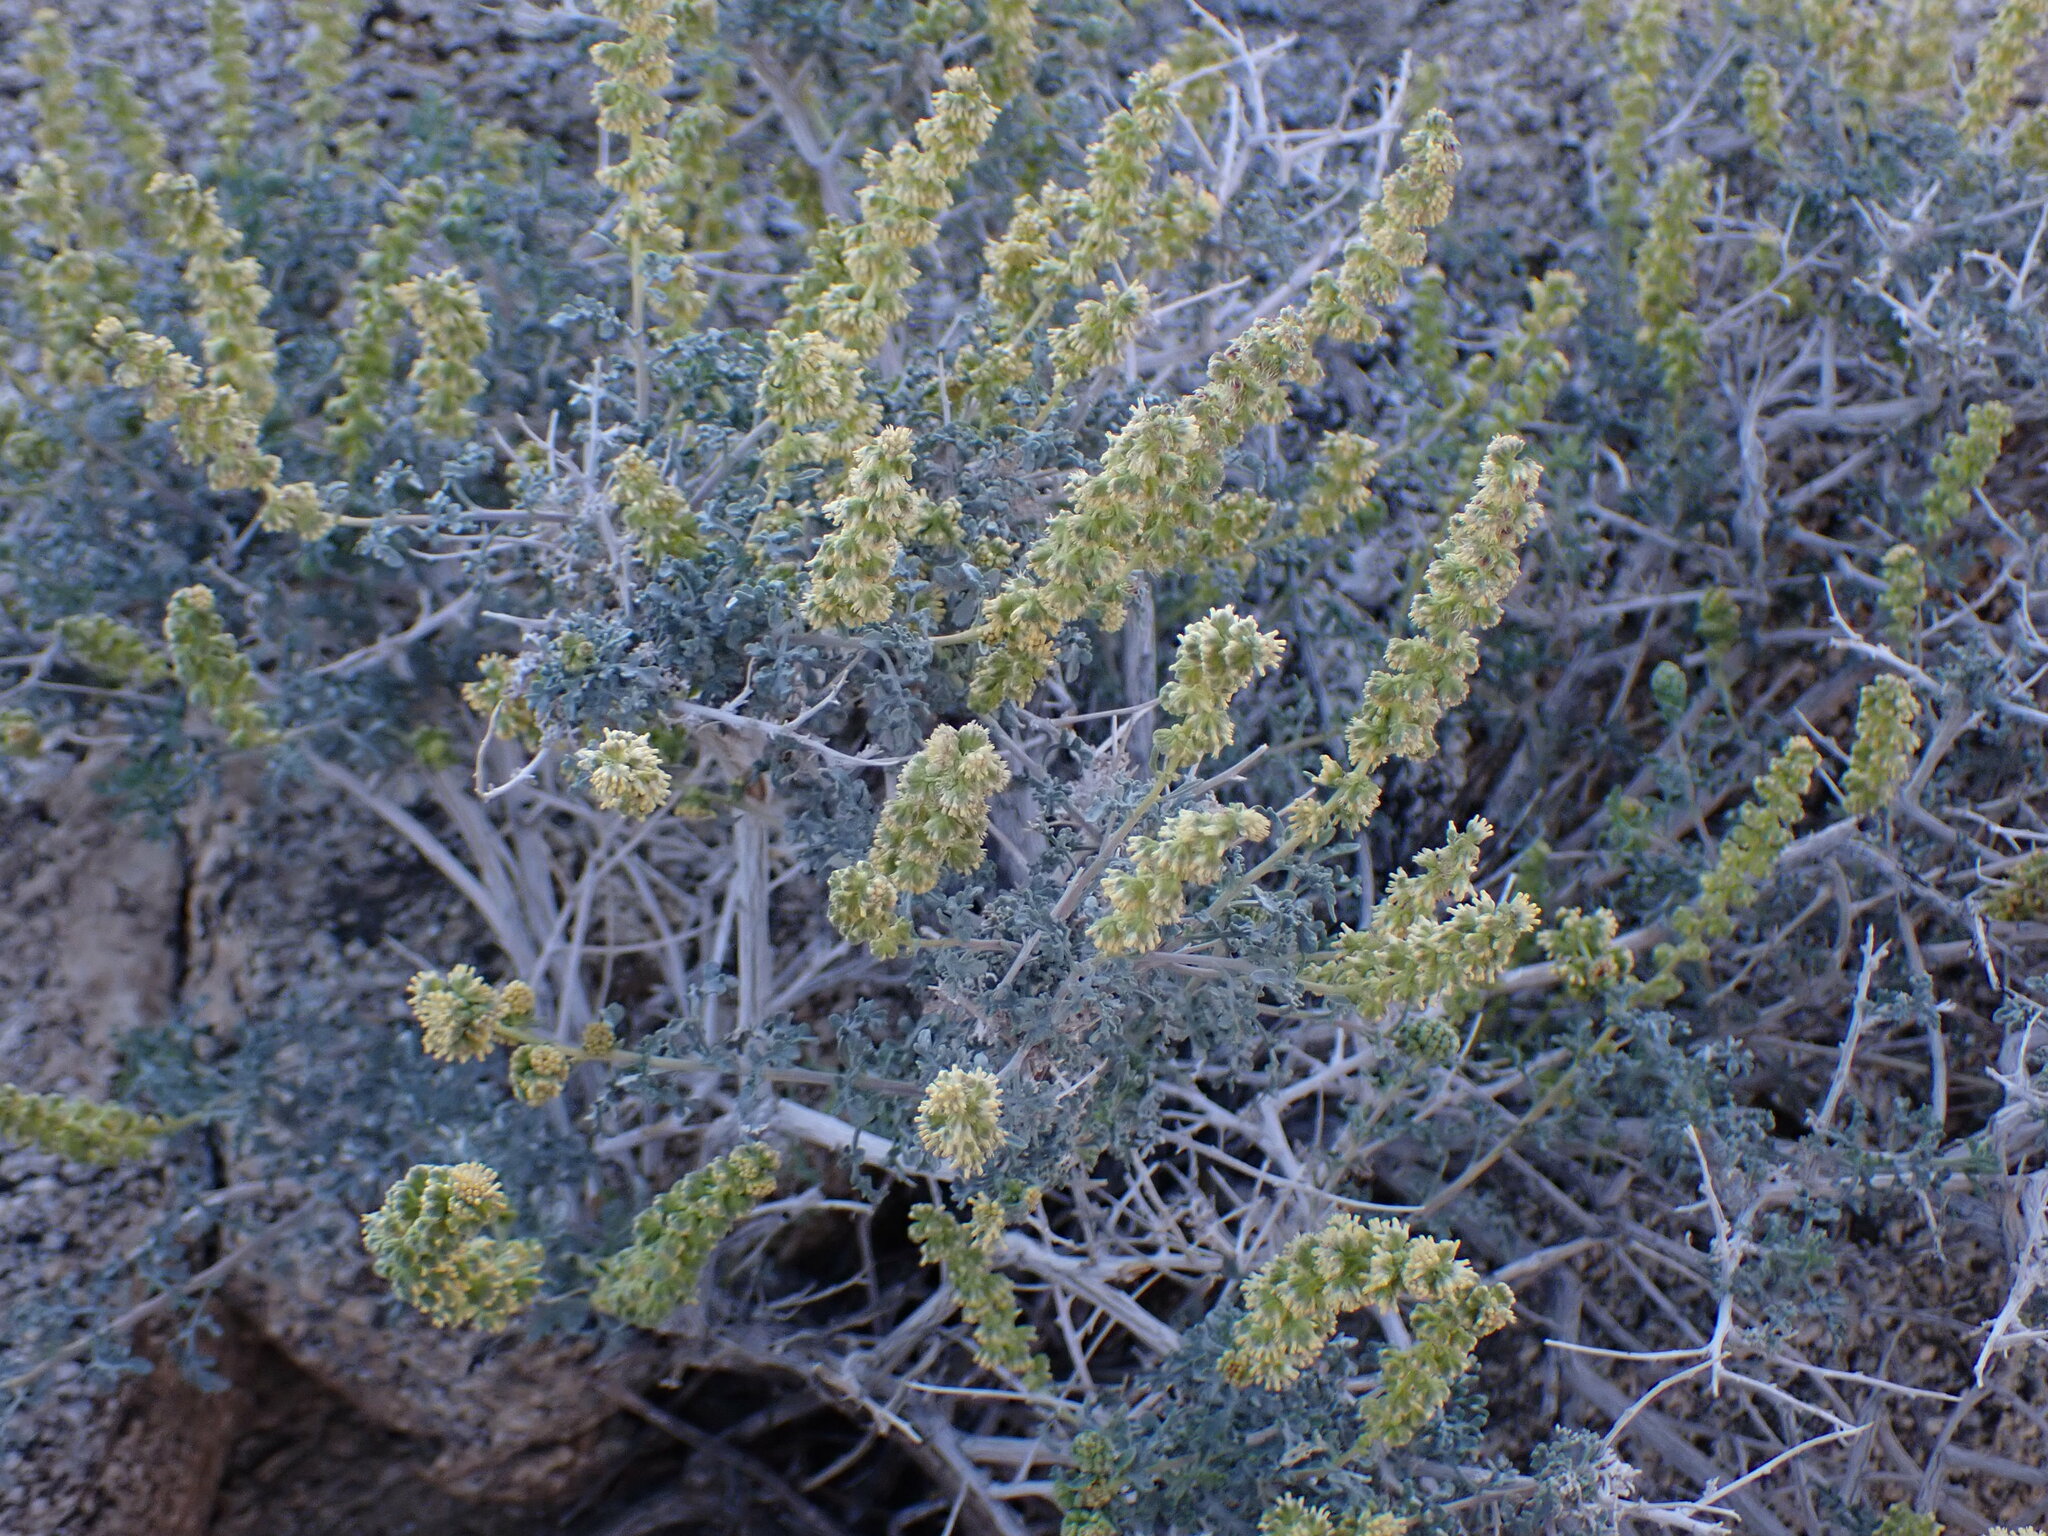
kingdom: Plantae
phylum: Tracheophyta
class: Magnoliopsida
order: Asterales
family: Asteraceae
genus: Ambrosia
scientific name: Ambrosia dumosa
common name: Bur-sage
